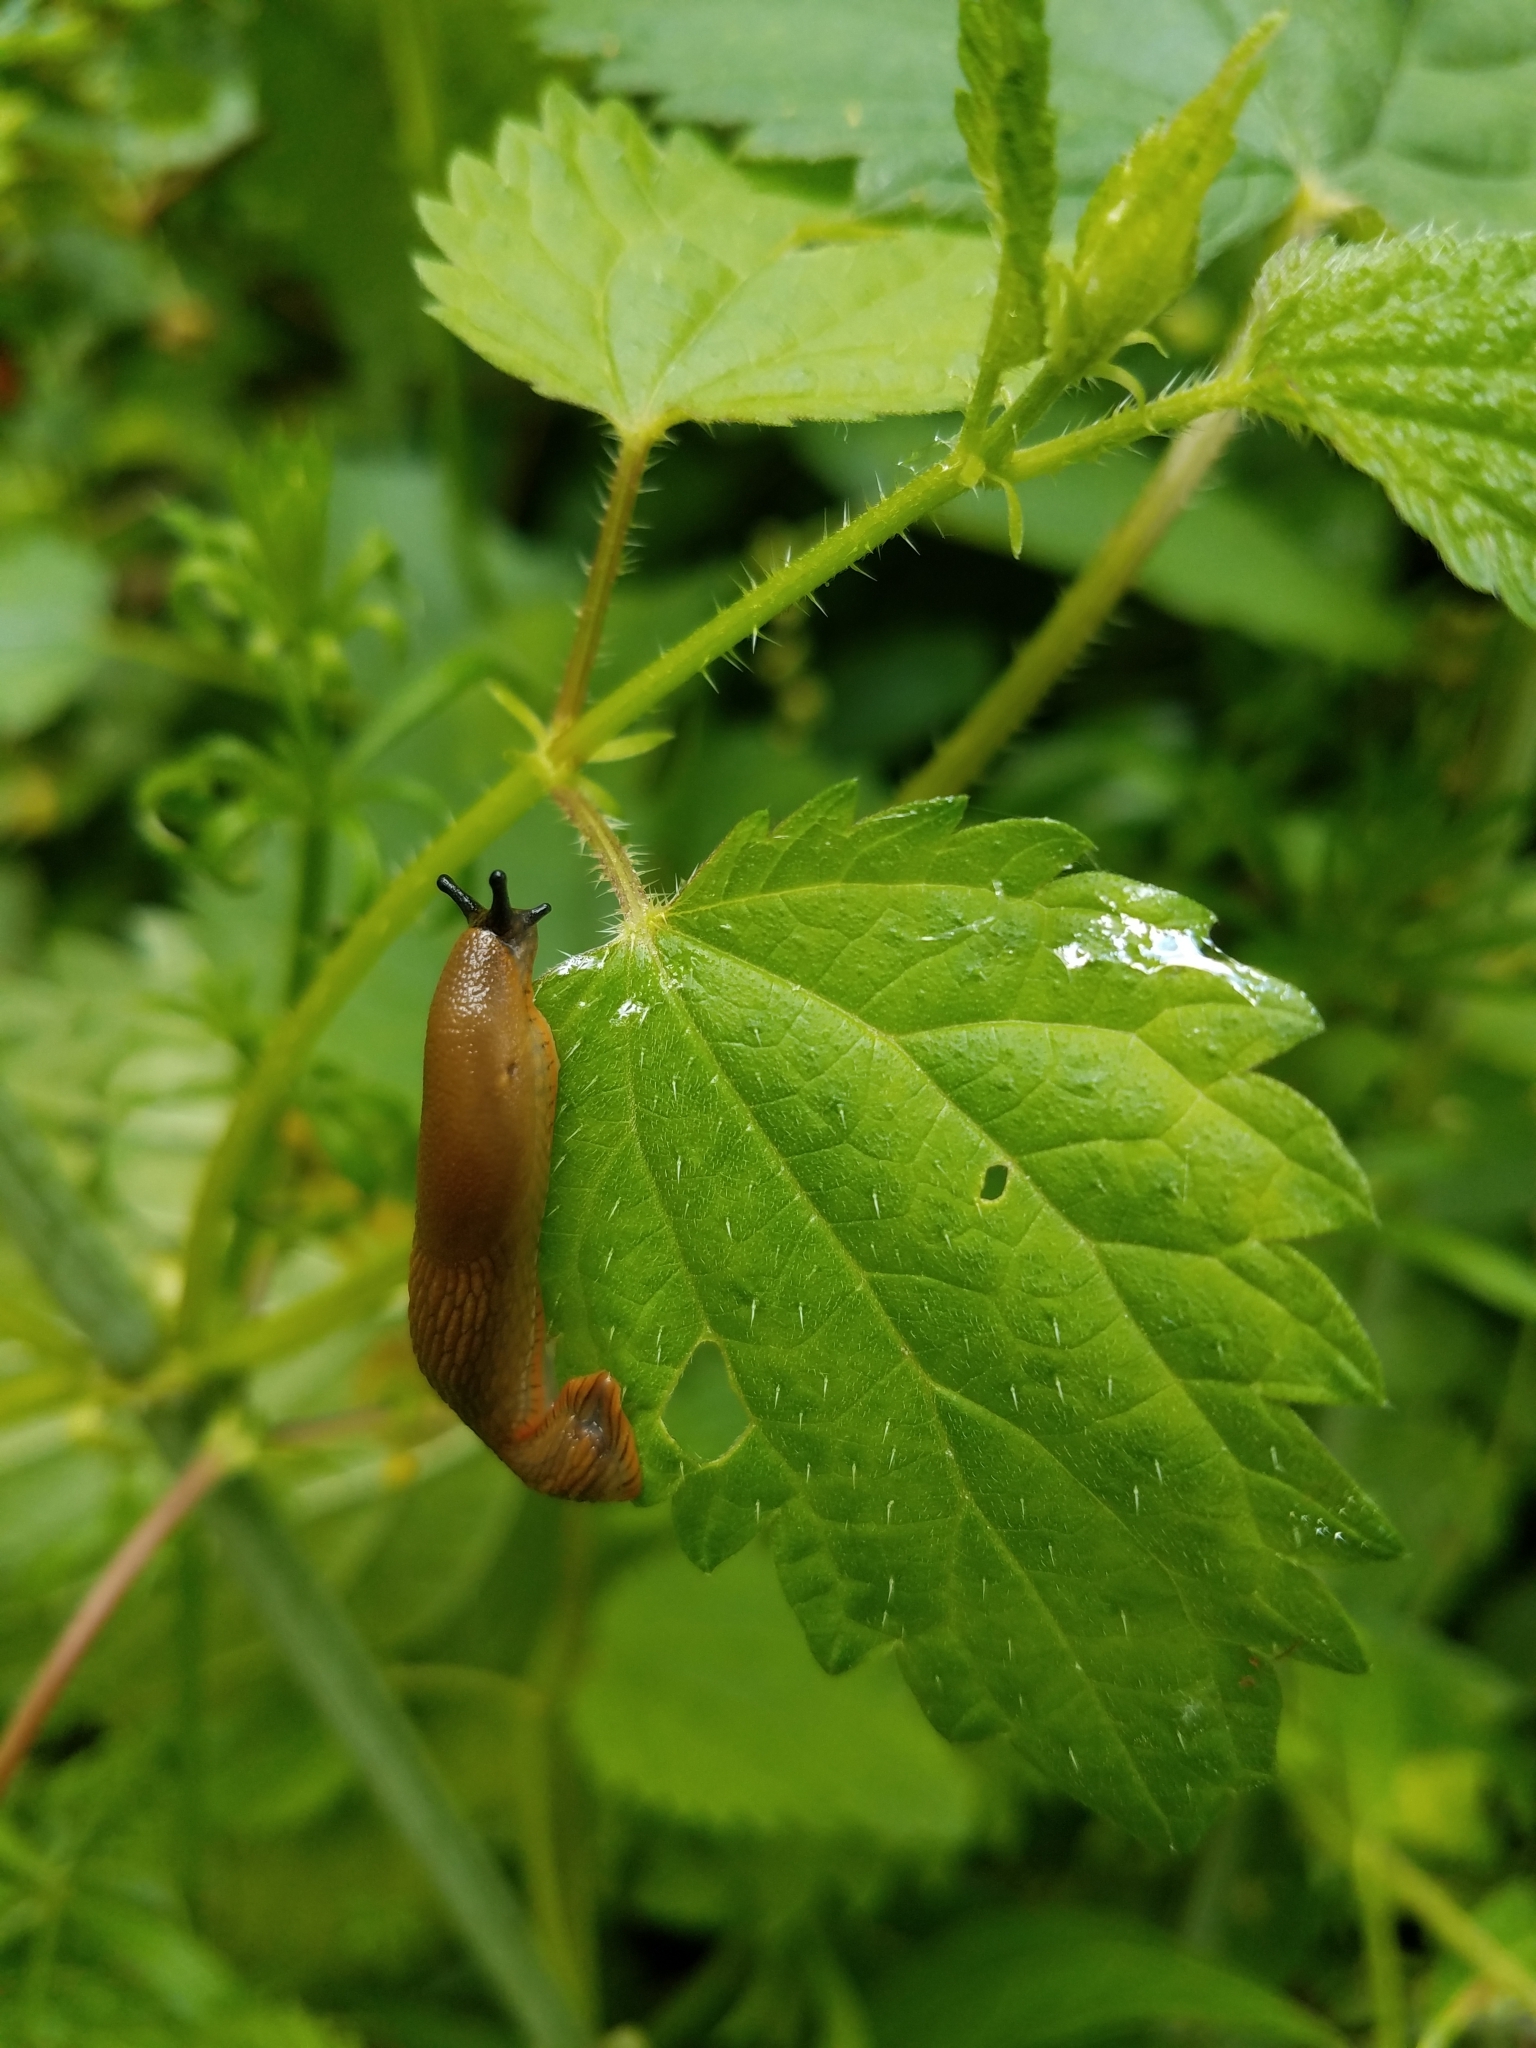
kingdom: Animalia
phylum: Mollusca
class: Gastropoda
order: Stylommatophora
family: Arionidae
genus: Arion
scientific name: Arion
